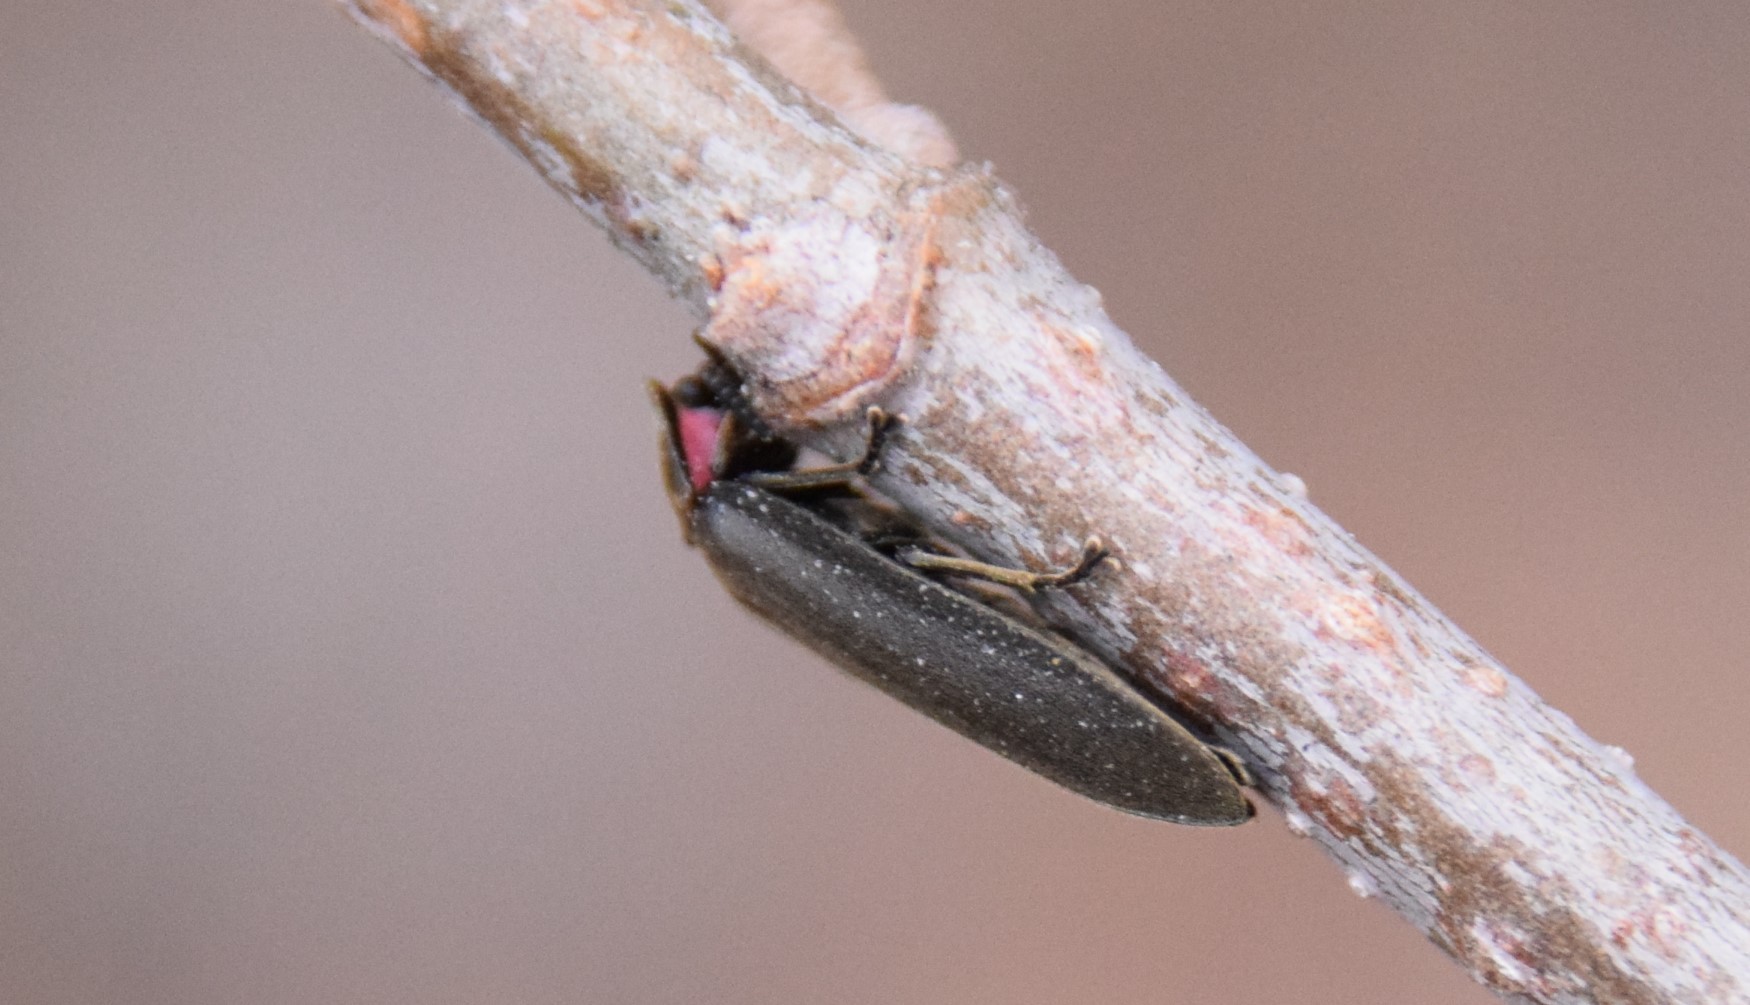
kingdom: Animalia
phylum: Arthropoda
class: Insecta
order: Coleoptera
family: Lampyridae
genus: Photinus
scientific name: Photinus corrusca
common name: Winter firefly
